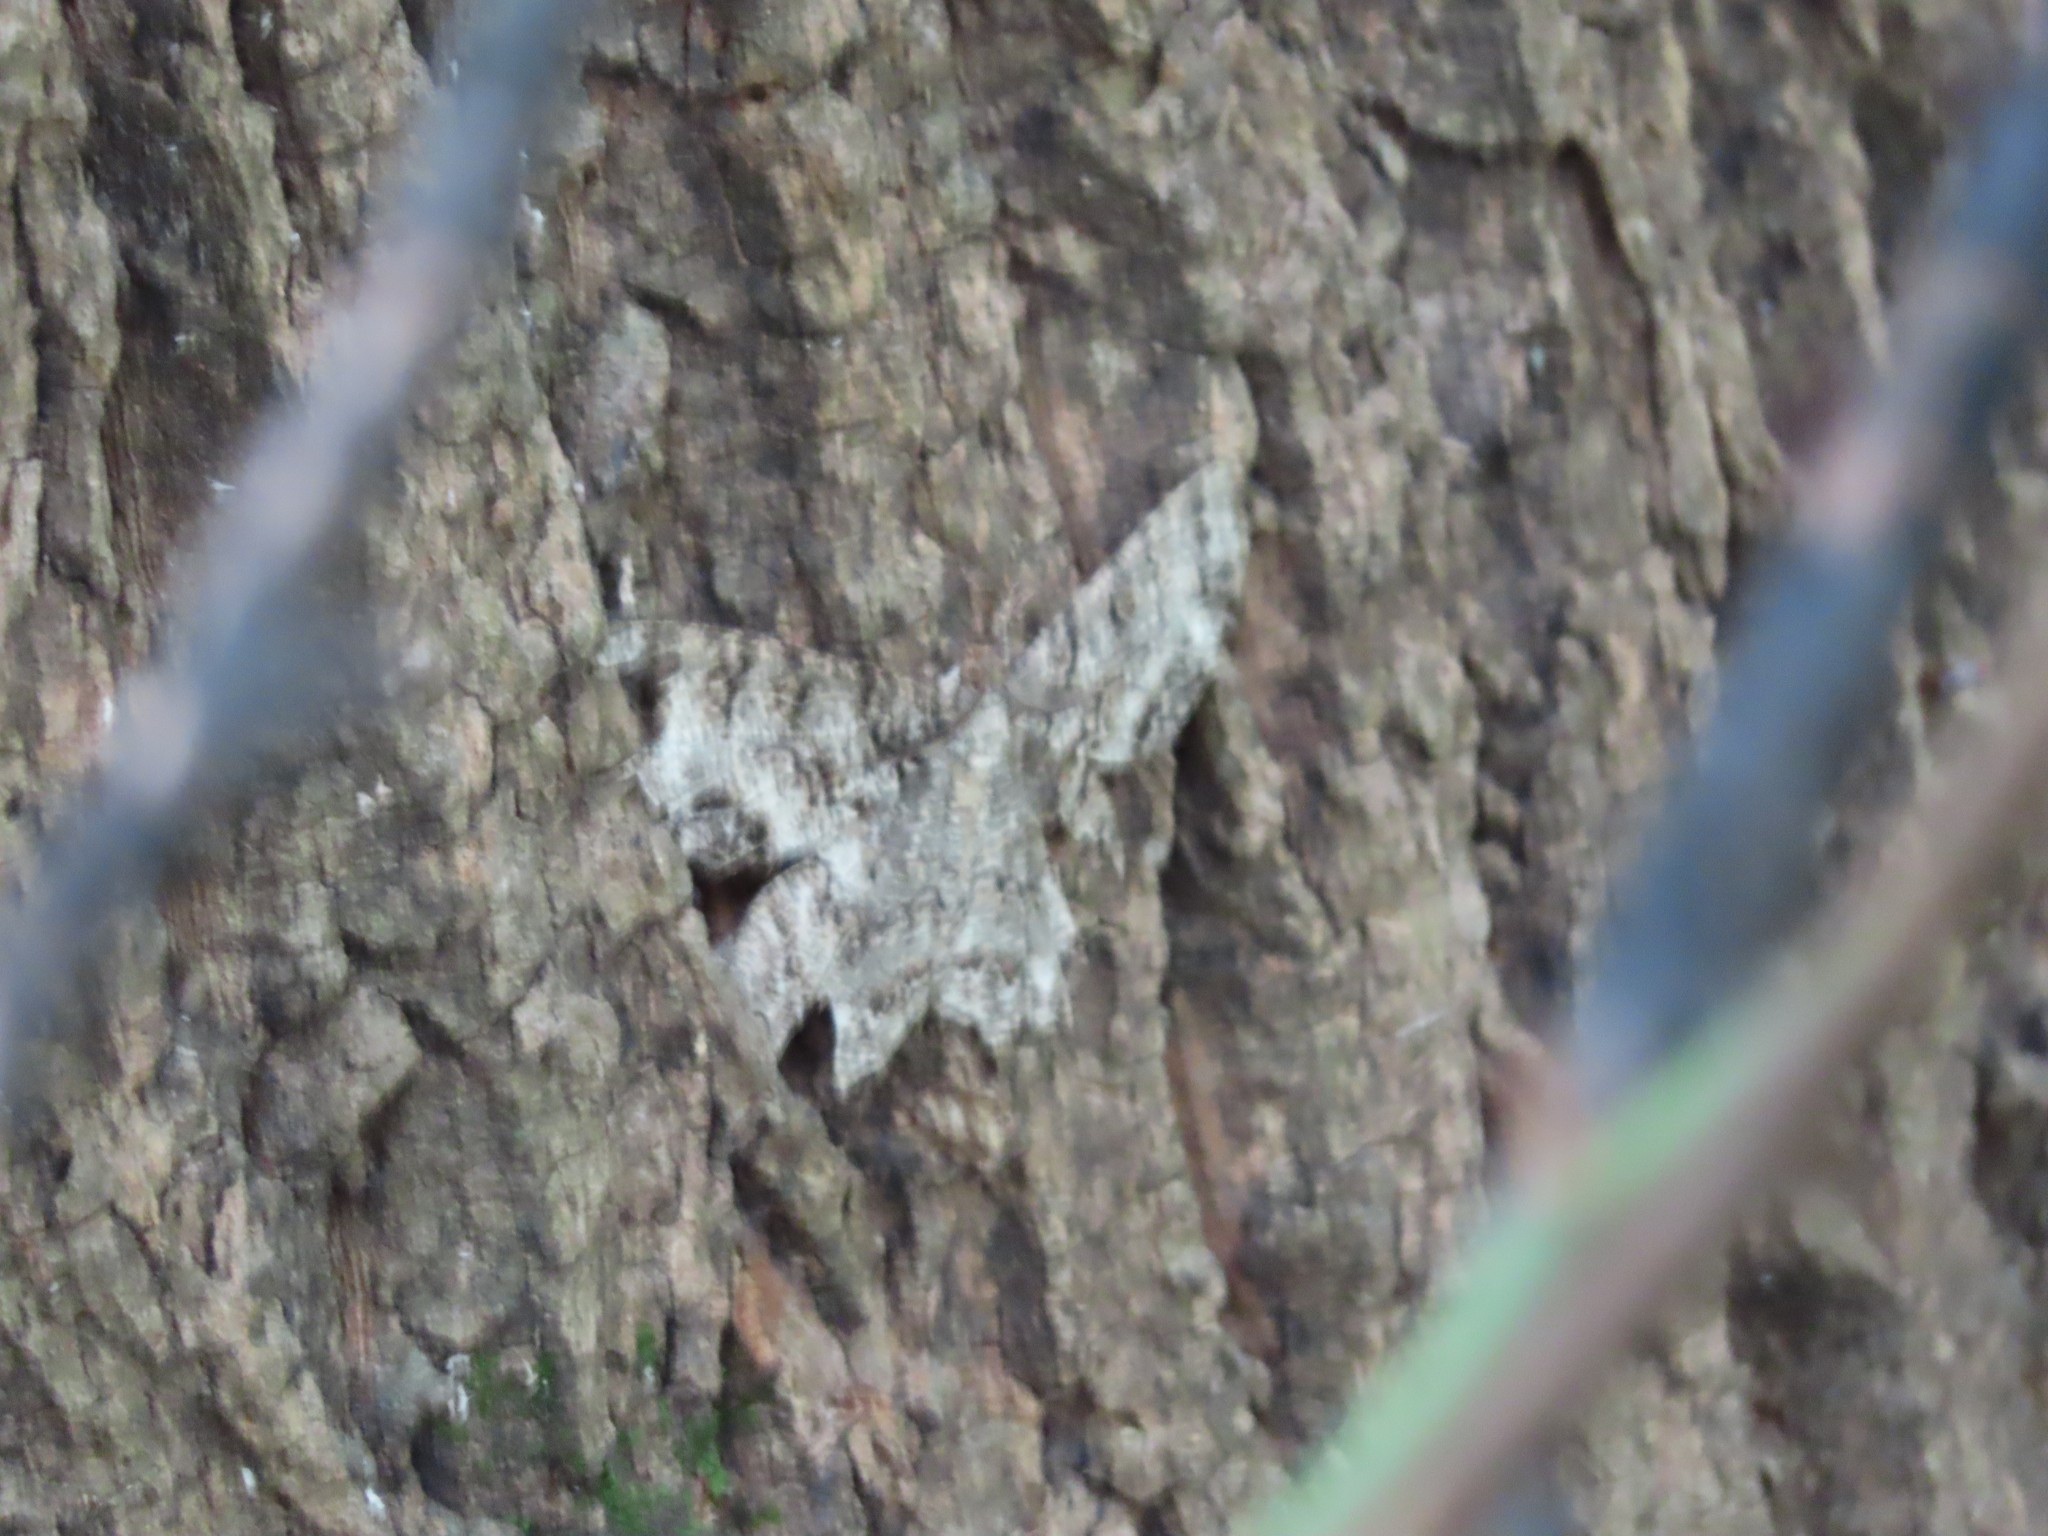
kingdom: Animalia
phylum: Arthropoda
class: Insecta
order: Lepidoptera
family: Geometridae
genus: Epimecis
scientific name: Epimecis hortaria
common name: Tulip-tree beauty
